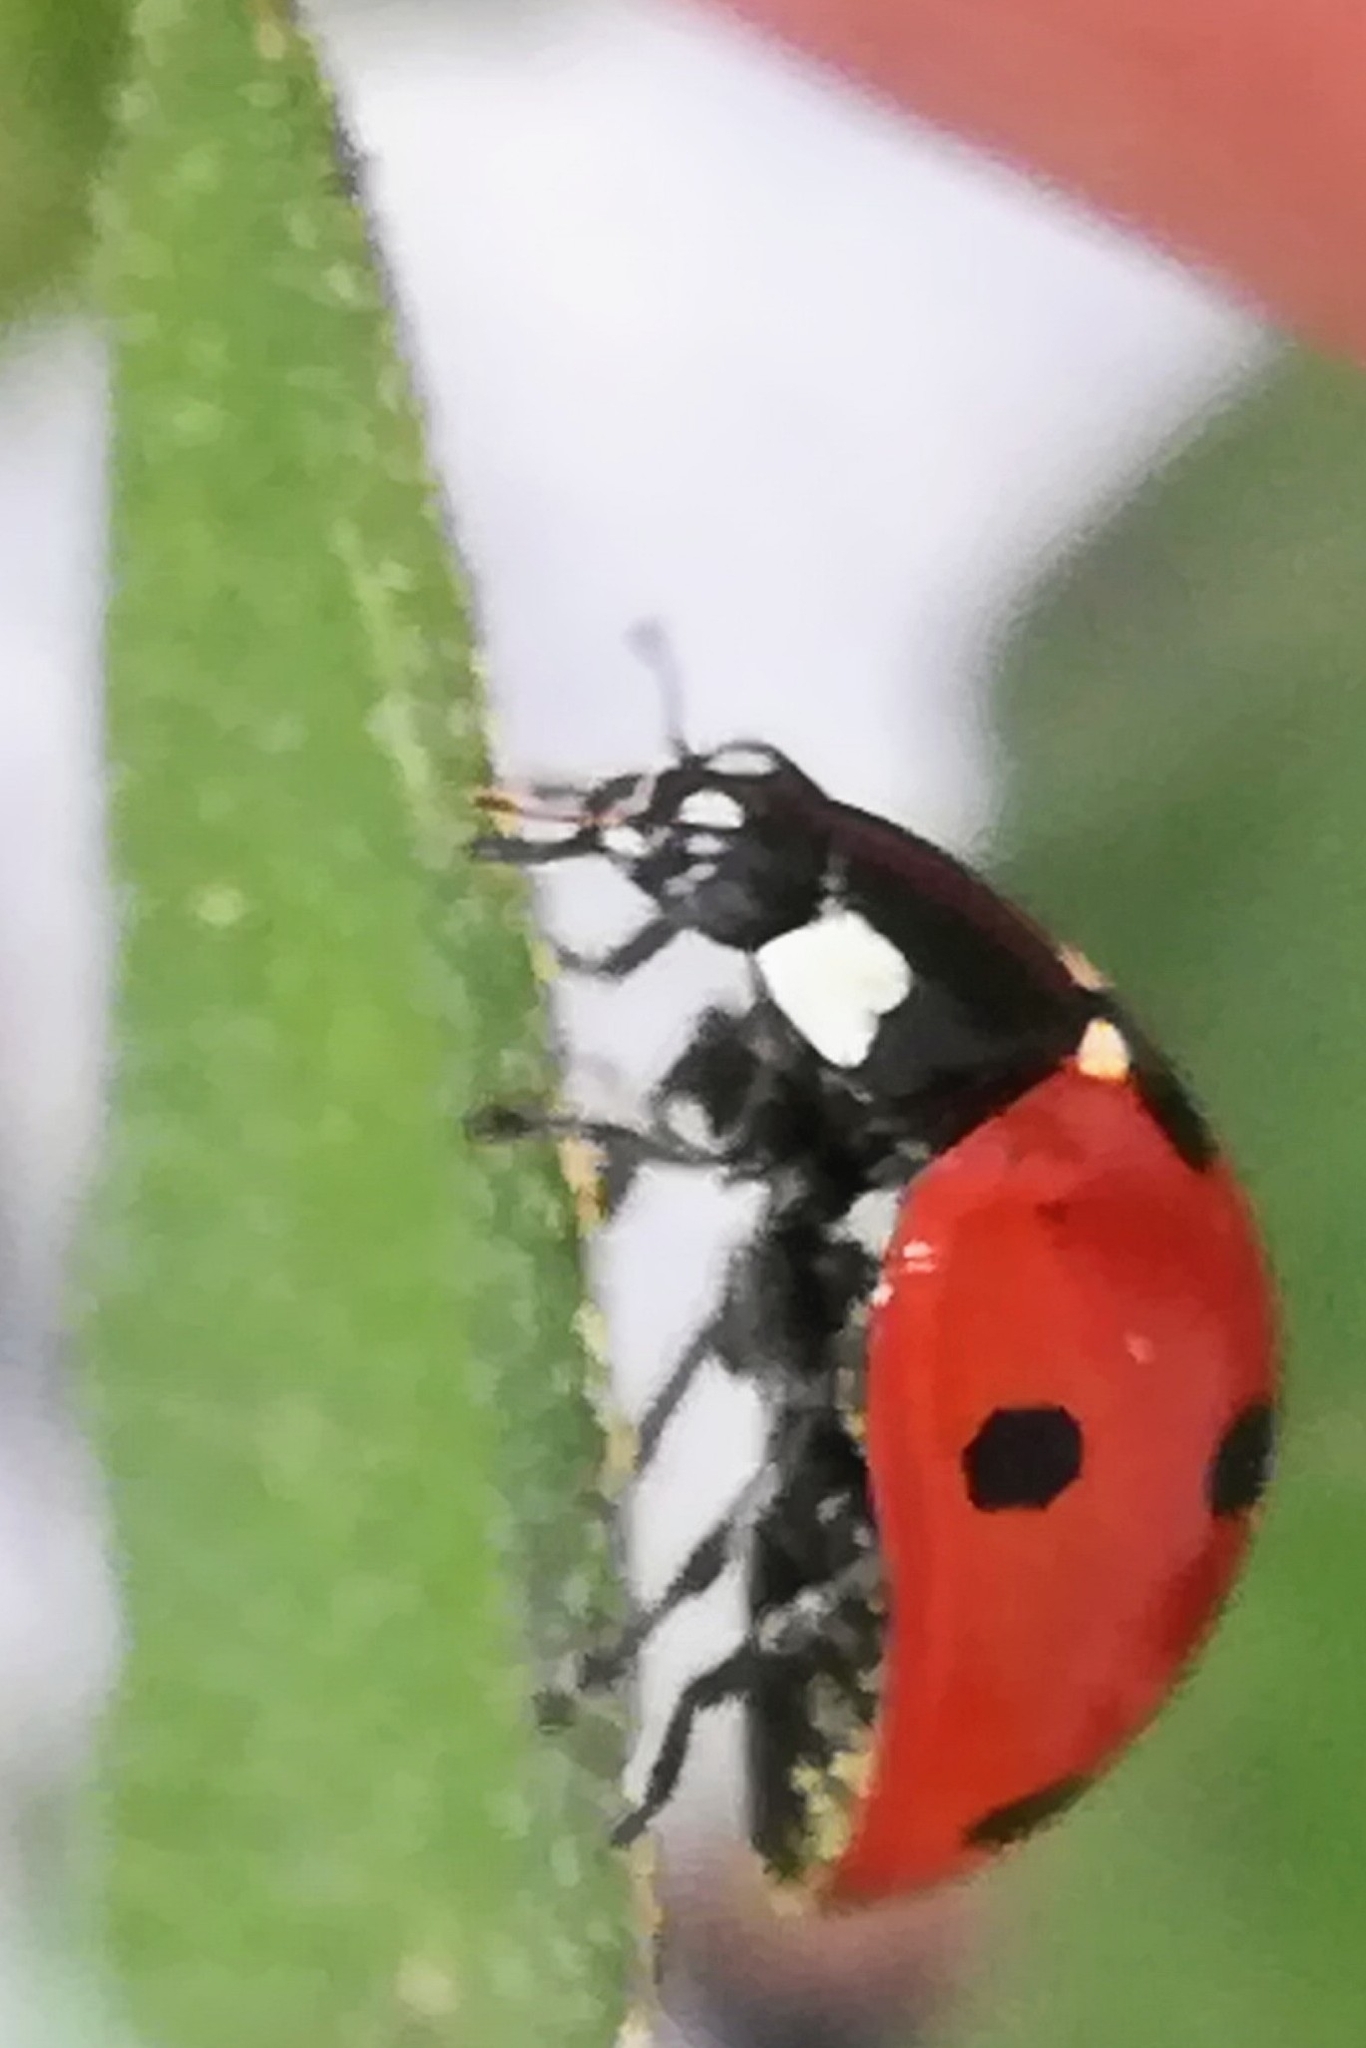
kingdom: Animalia
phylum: Arthropoda
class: Insecta
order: Coleoptera
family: Coccinellidae
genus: Coccinella
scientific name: Coccinella septempunctata
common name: Sevenspotted lady beetle
